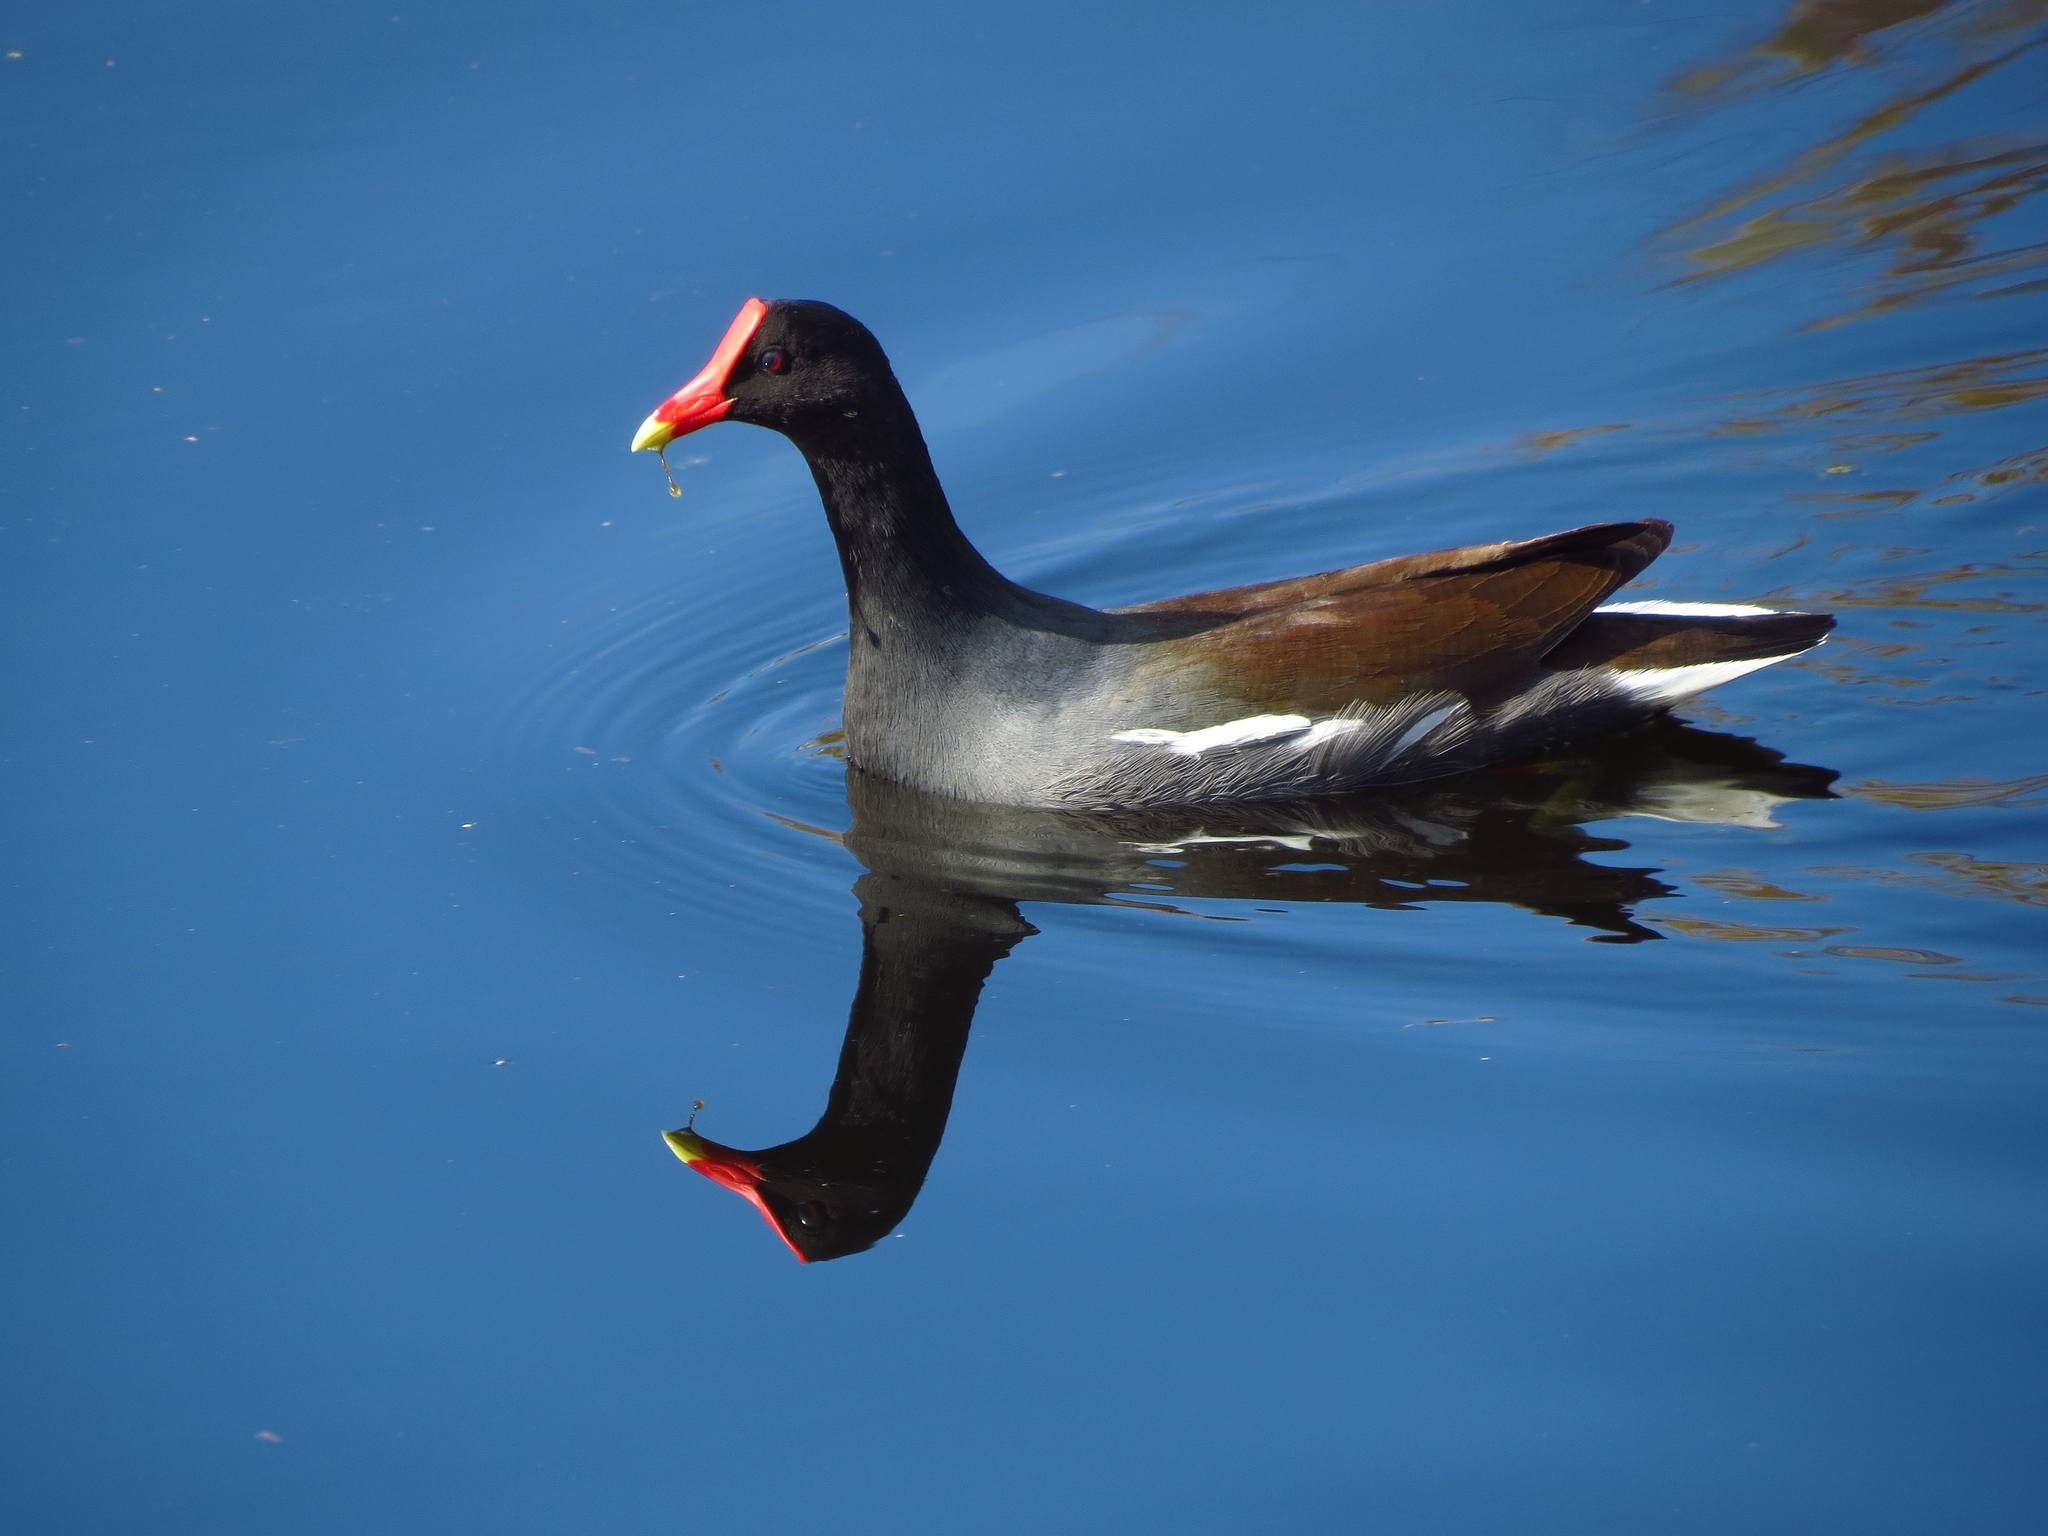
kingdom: Animalia
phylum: Chordata
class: Aves
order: Gruiformes
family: Rallidae
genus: Gallinula
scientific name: Gallinula chloropus
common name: Common moorhen
